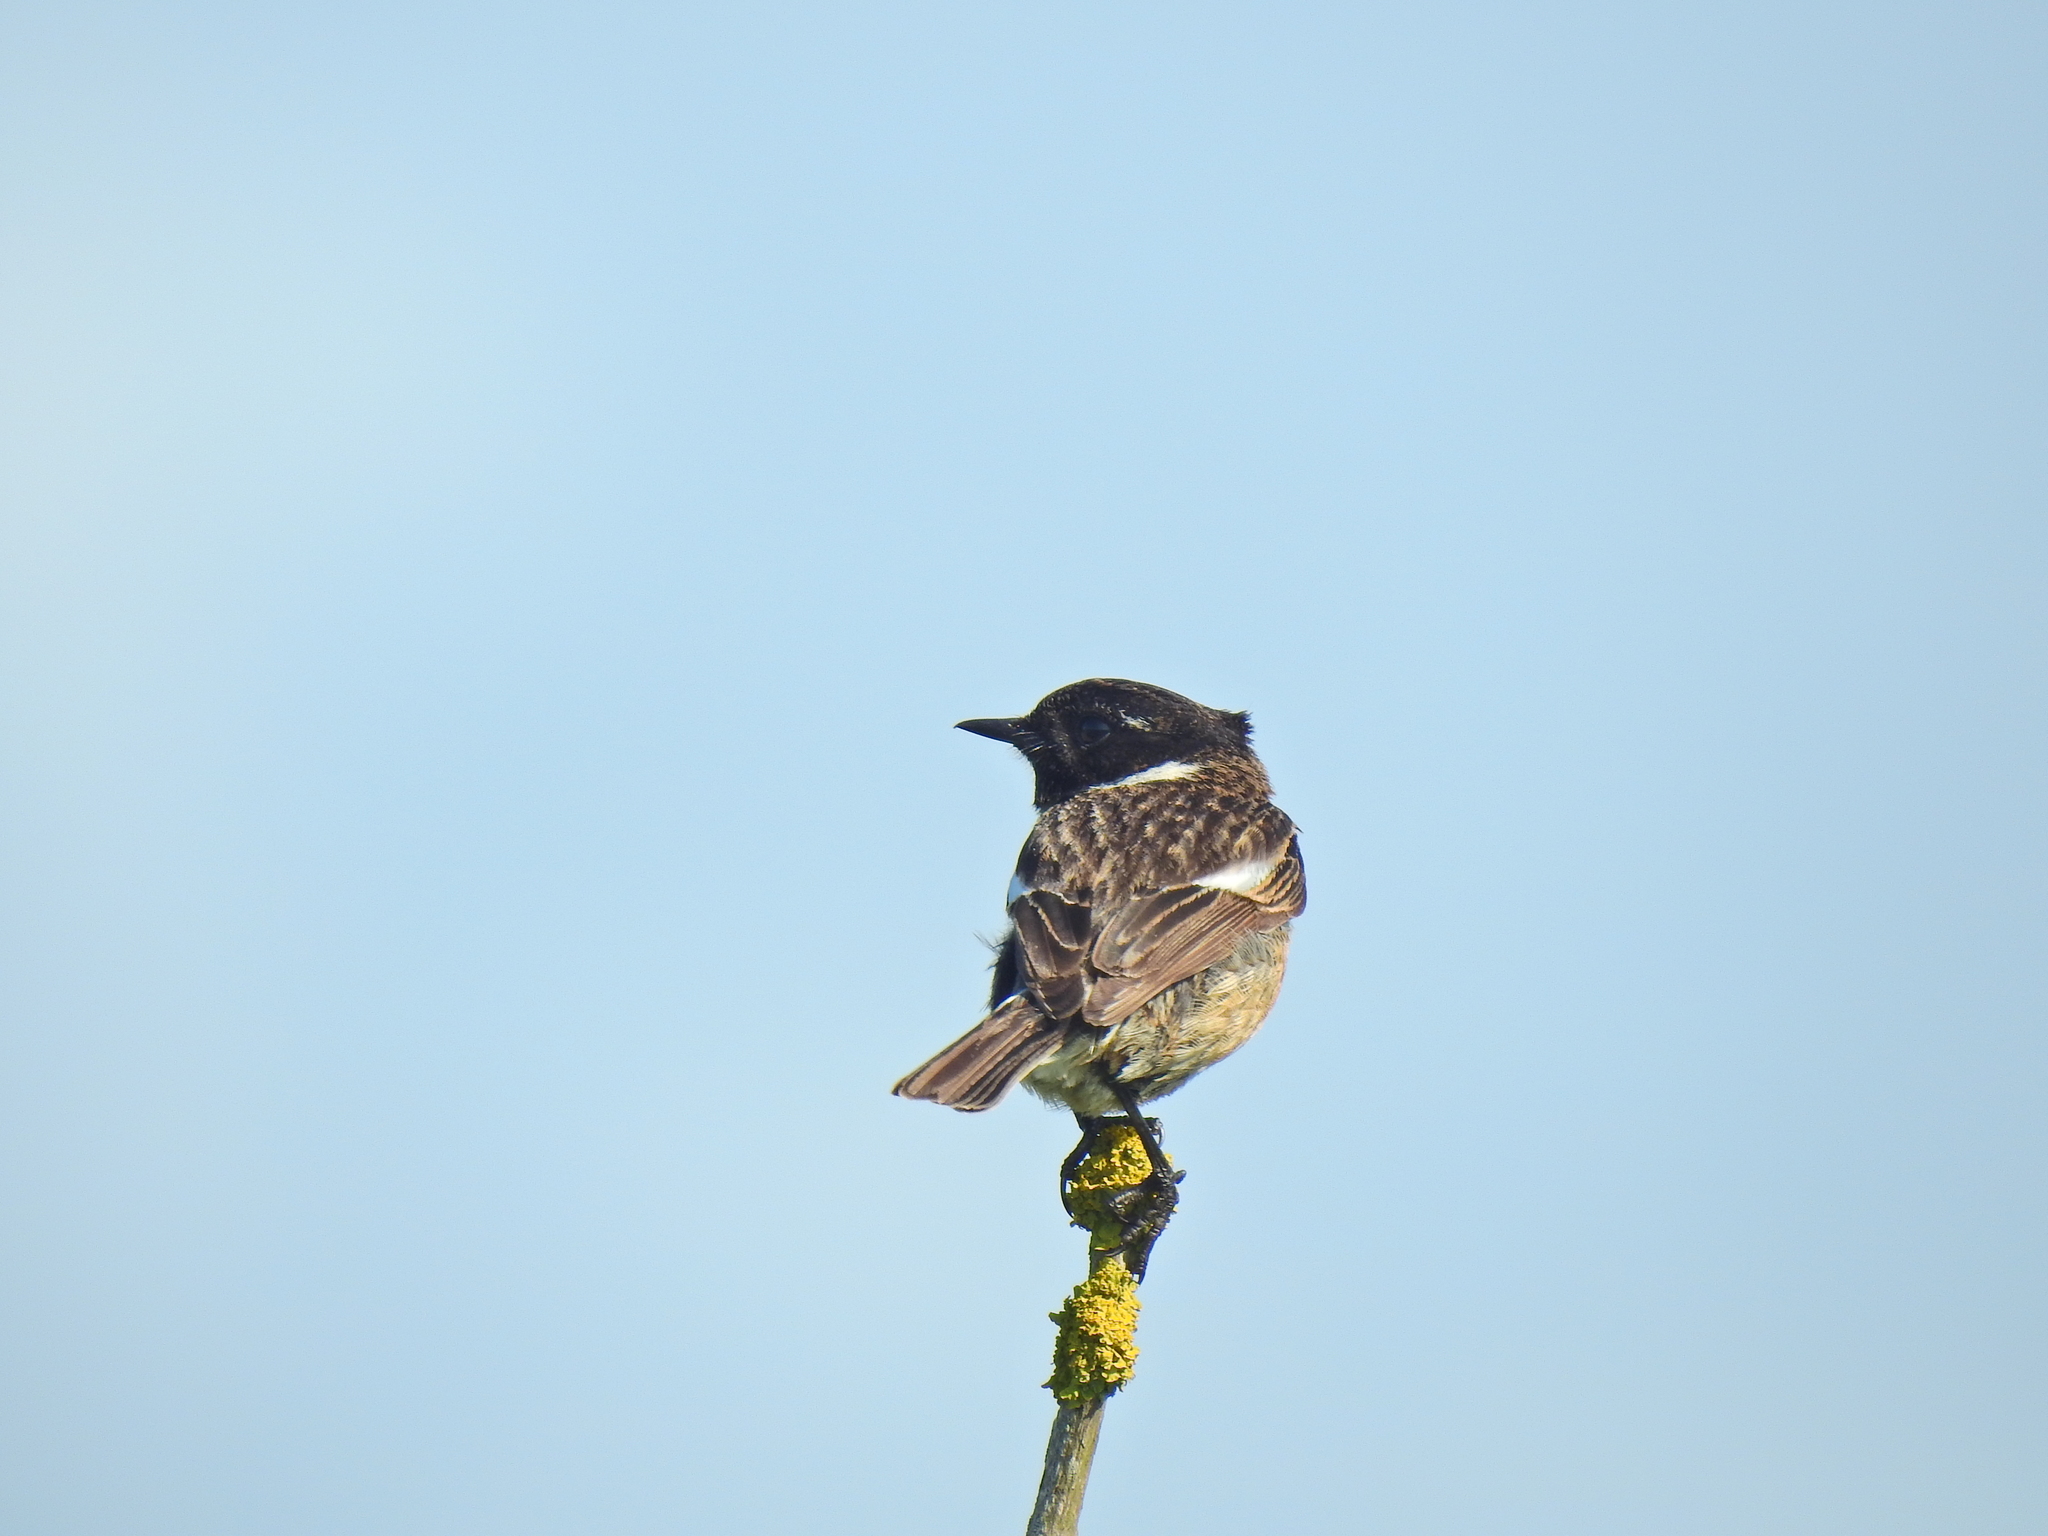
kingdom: Animalia
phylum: Chordata
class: Aves
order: Passeriformes
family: Muscicapidae
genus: Saxicola
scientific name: Saxicola rubicola
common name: European stonechat
